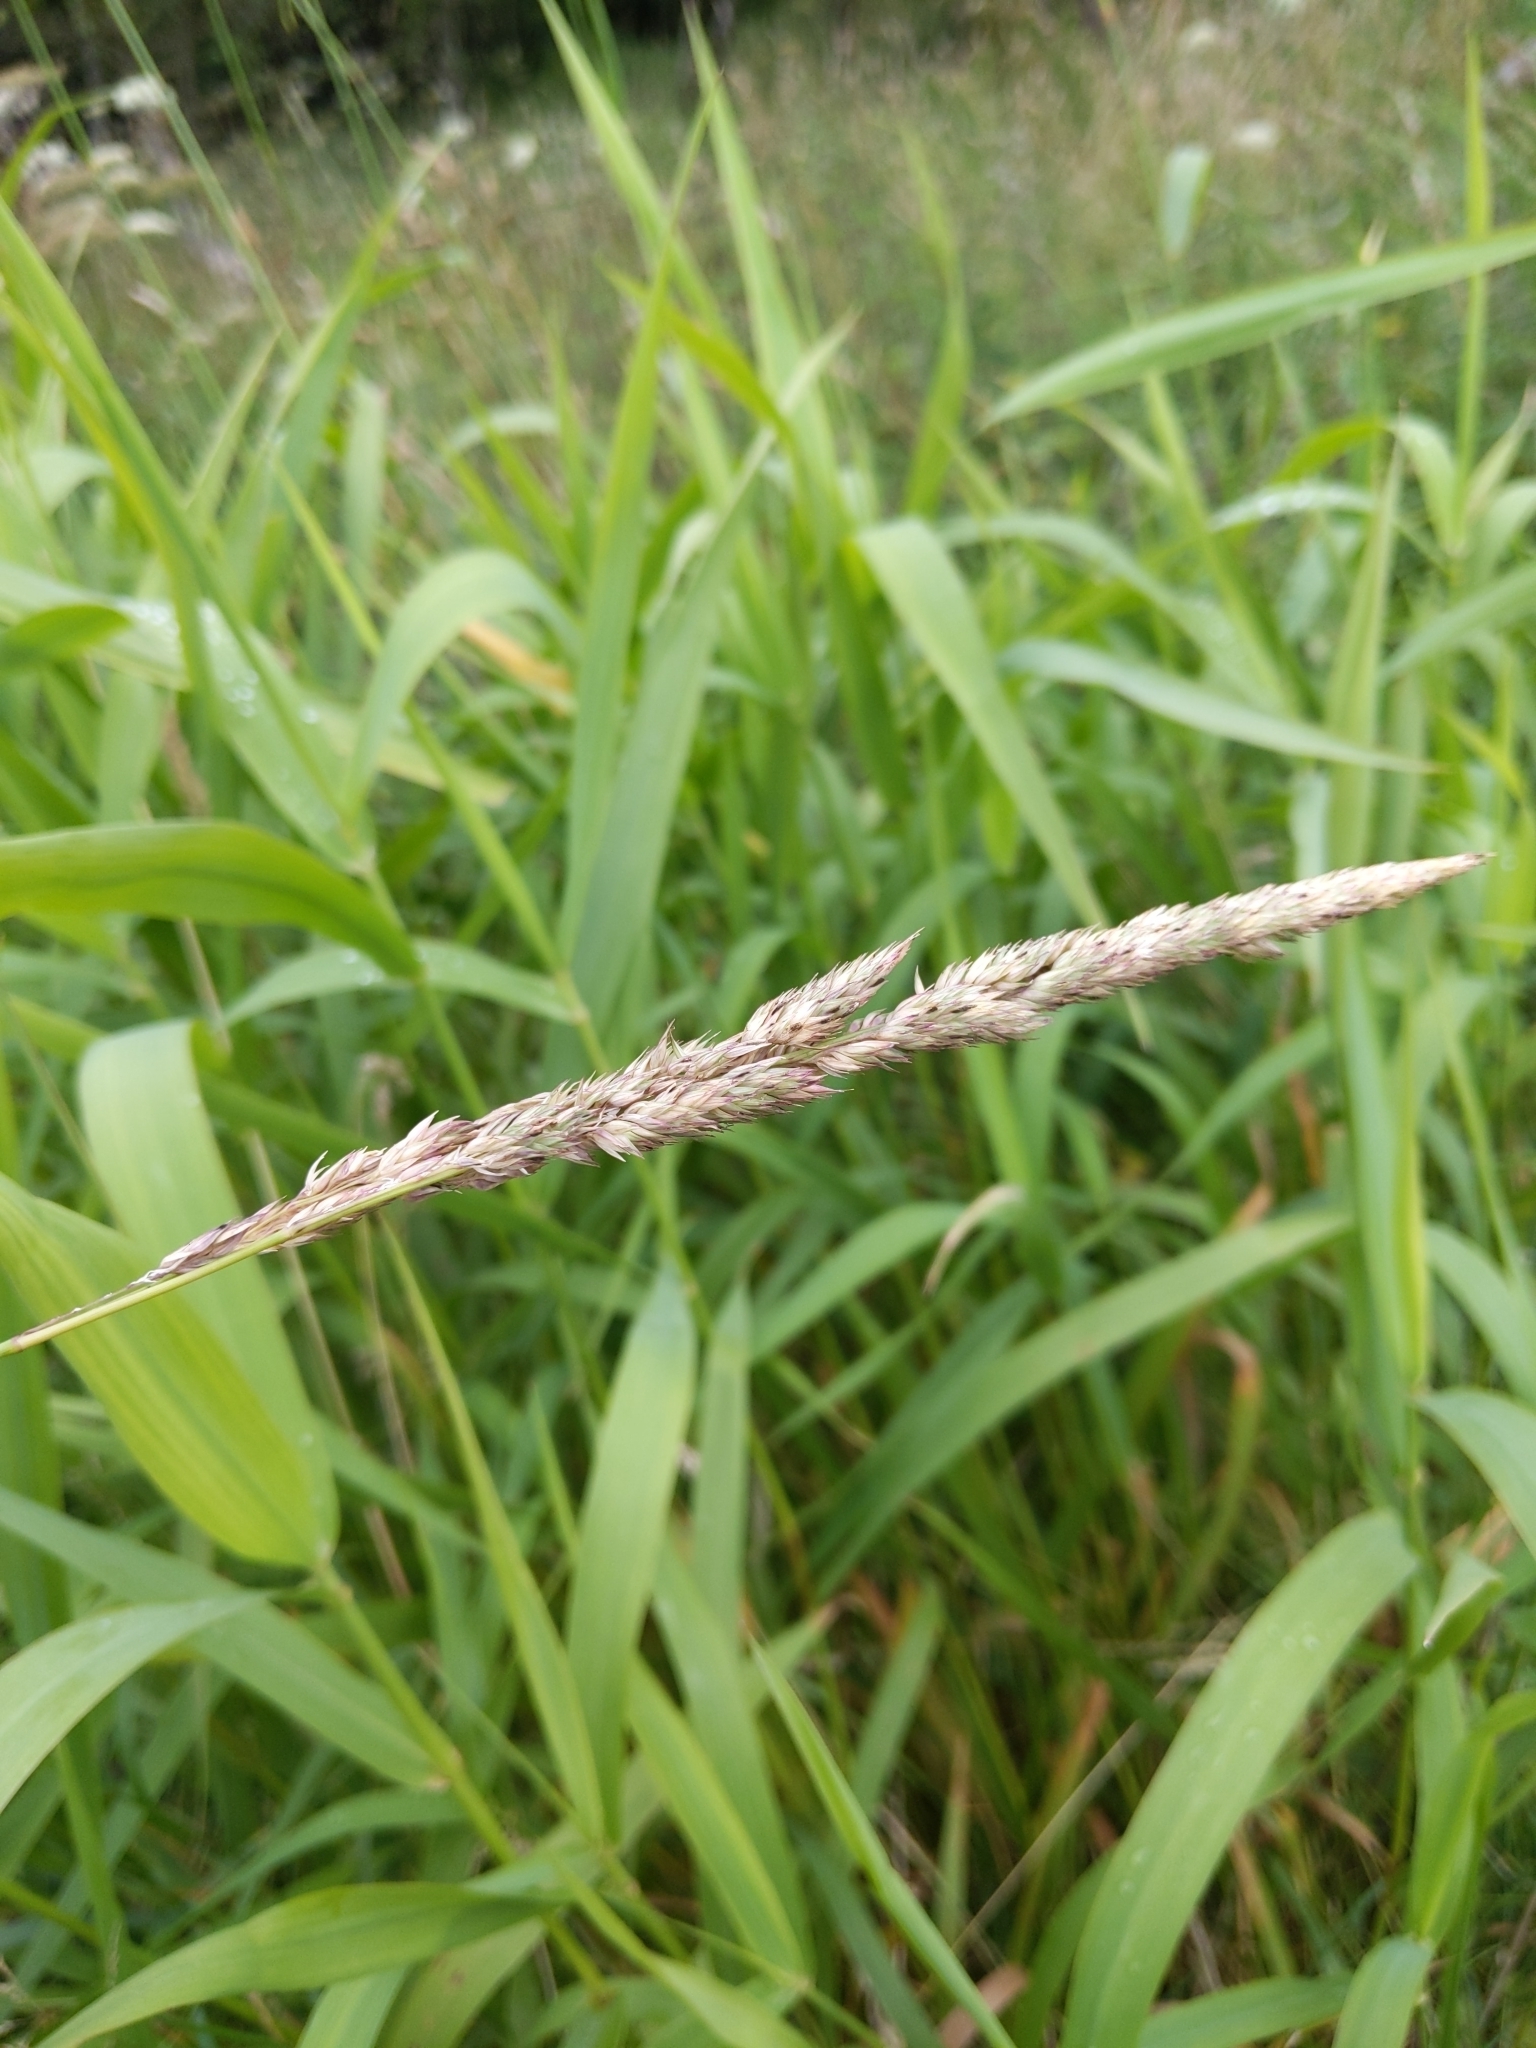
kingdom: Plantae
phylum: Tracheophyta
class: Liliopsida
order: Poales
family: Poaceae
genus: Phalaris
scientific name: Phalaris arundinacea
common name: Reed canary-grass
